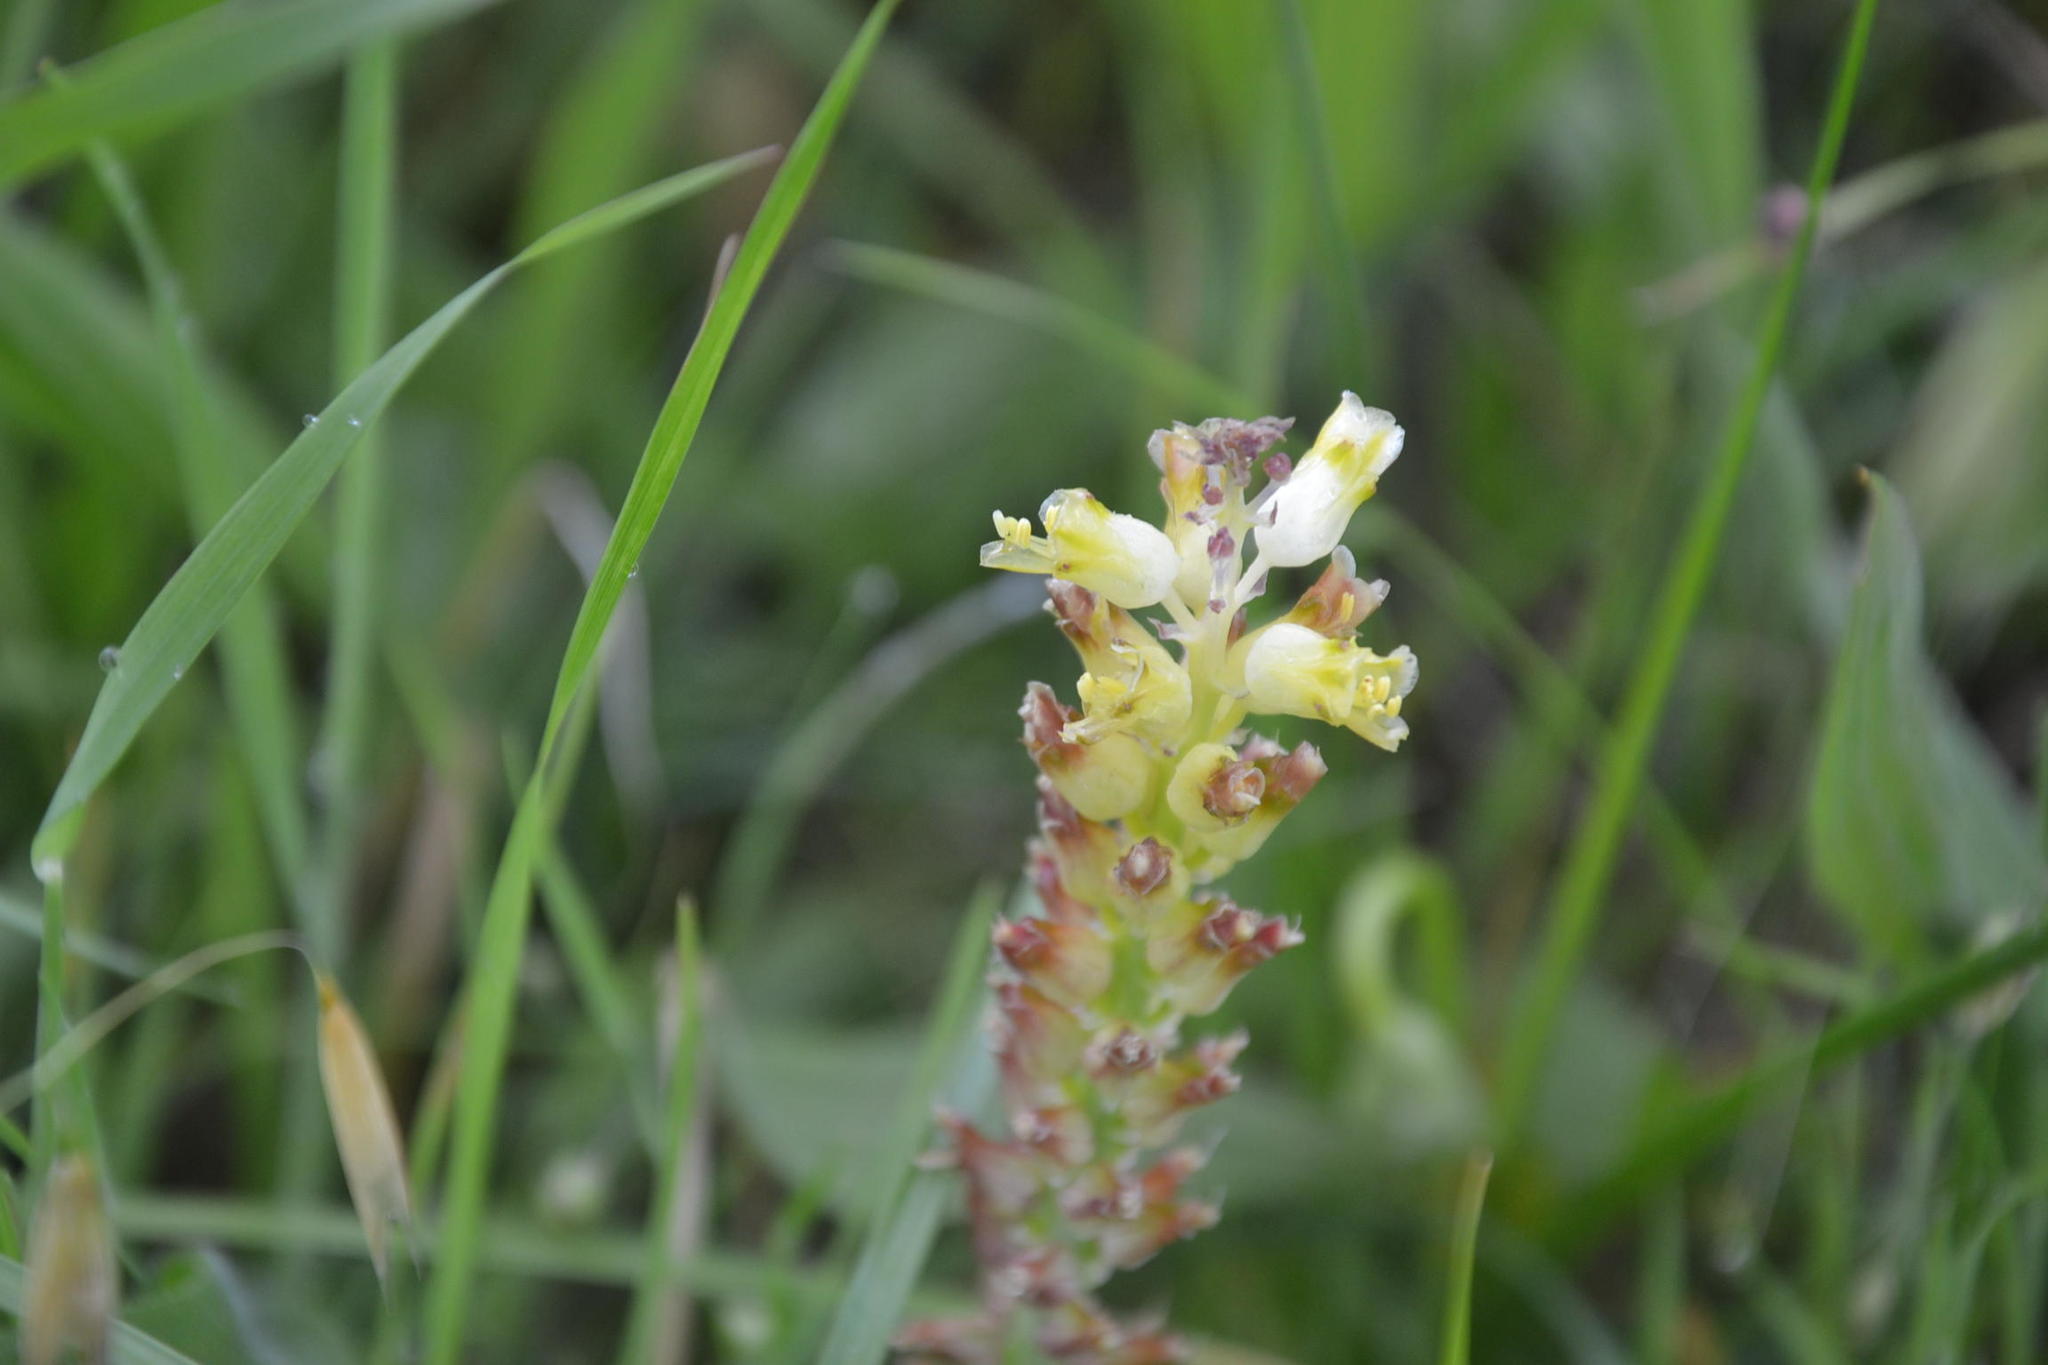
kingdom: Plantae
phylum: Tracheophyta
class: Liliopsida
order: Asparagales
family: Asparagaceae
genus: Lachenalia
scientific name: Lachenalia pallida
